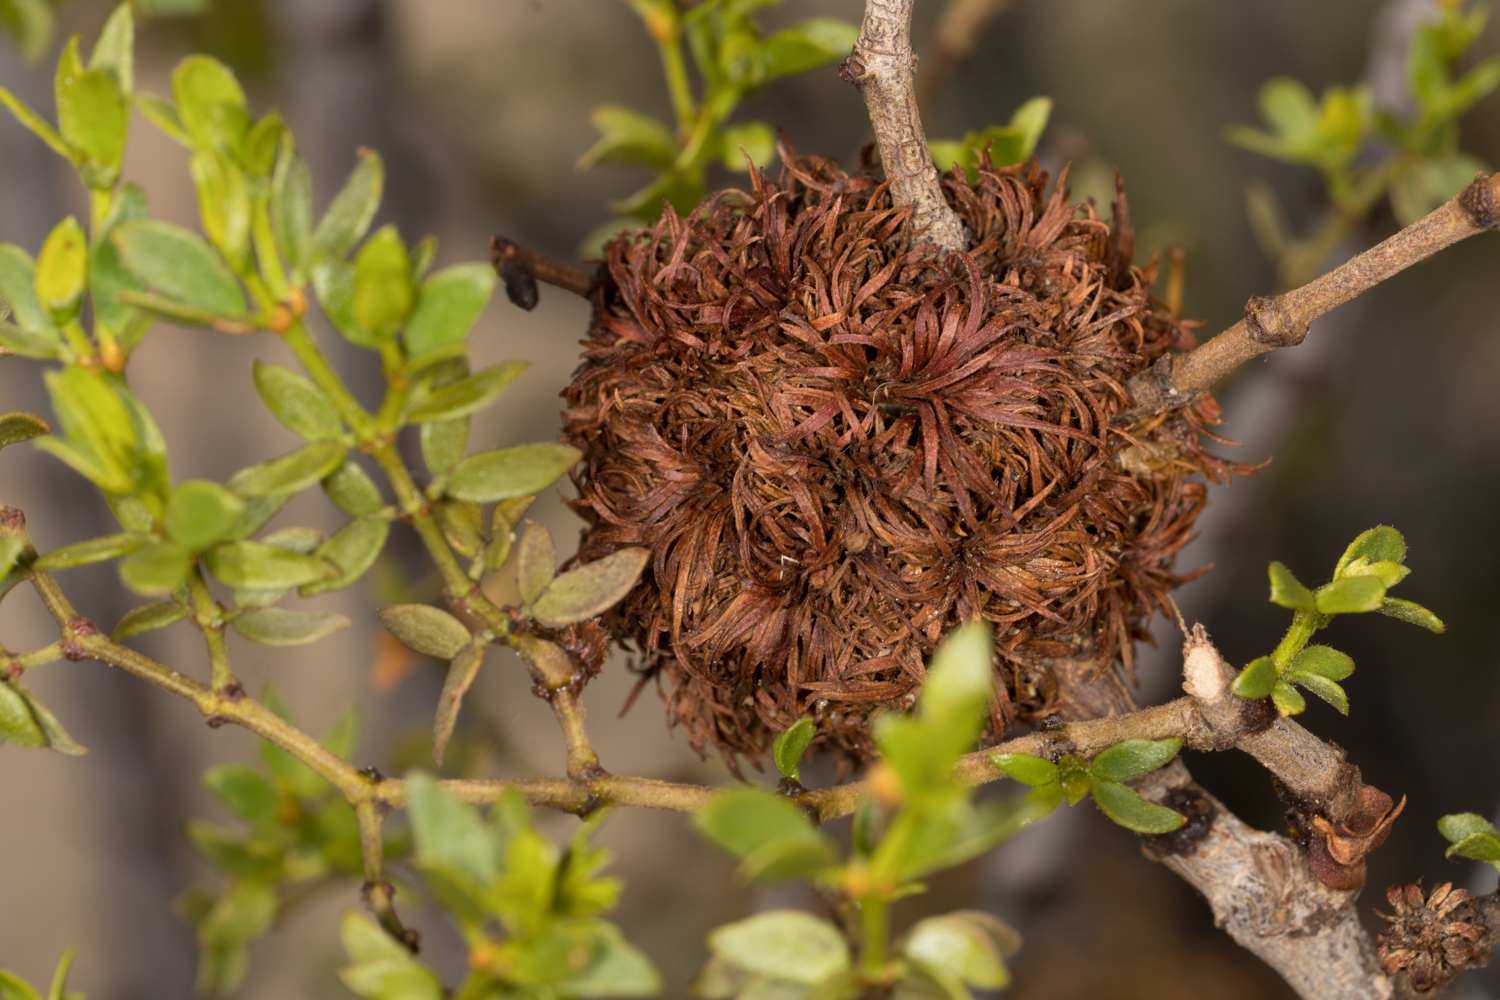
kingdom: Animalia
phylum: Arthropoda
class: Insecta
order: Diptera
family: Cecidomyiidae
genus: Asphondylia
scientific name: Asphondylia auripila
